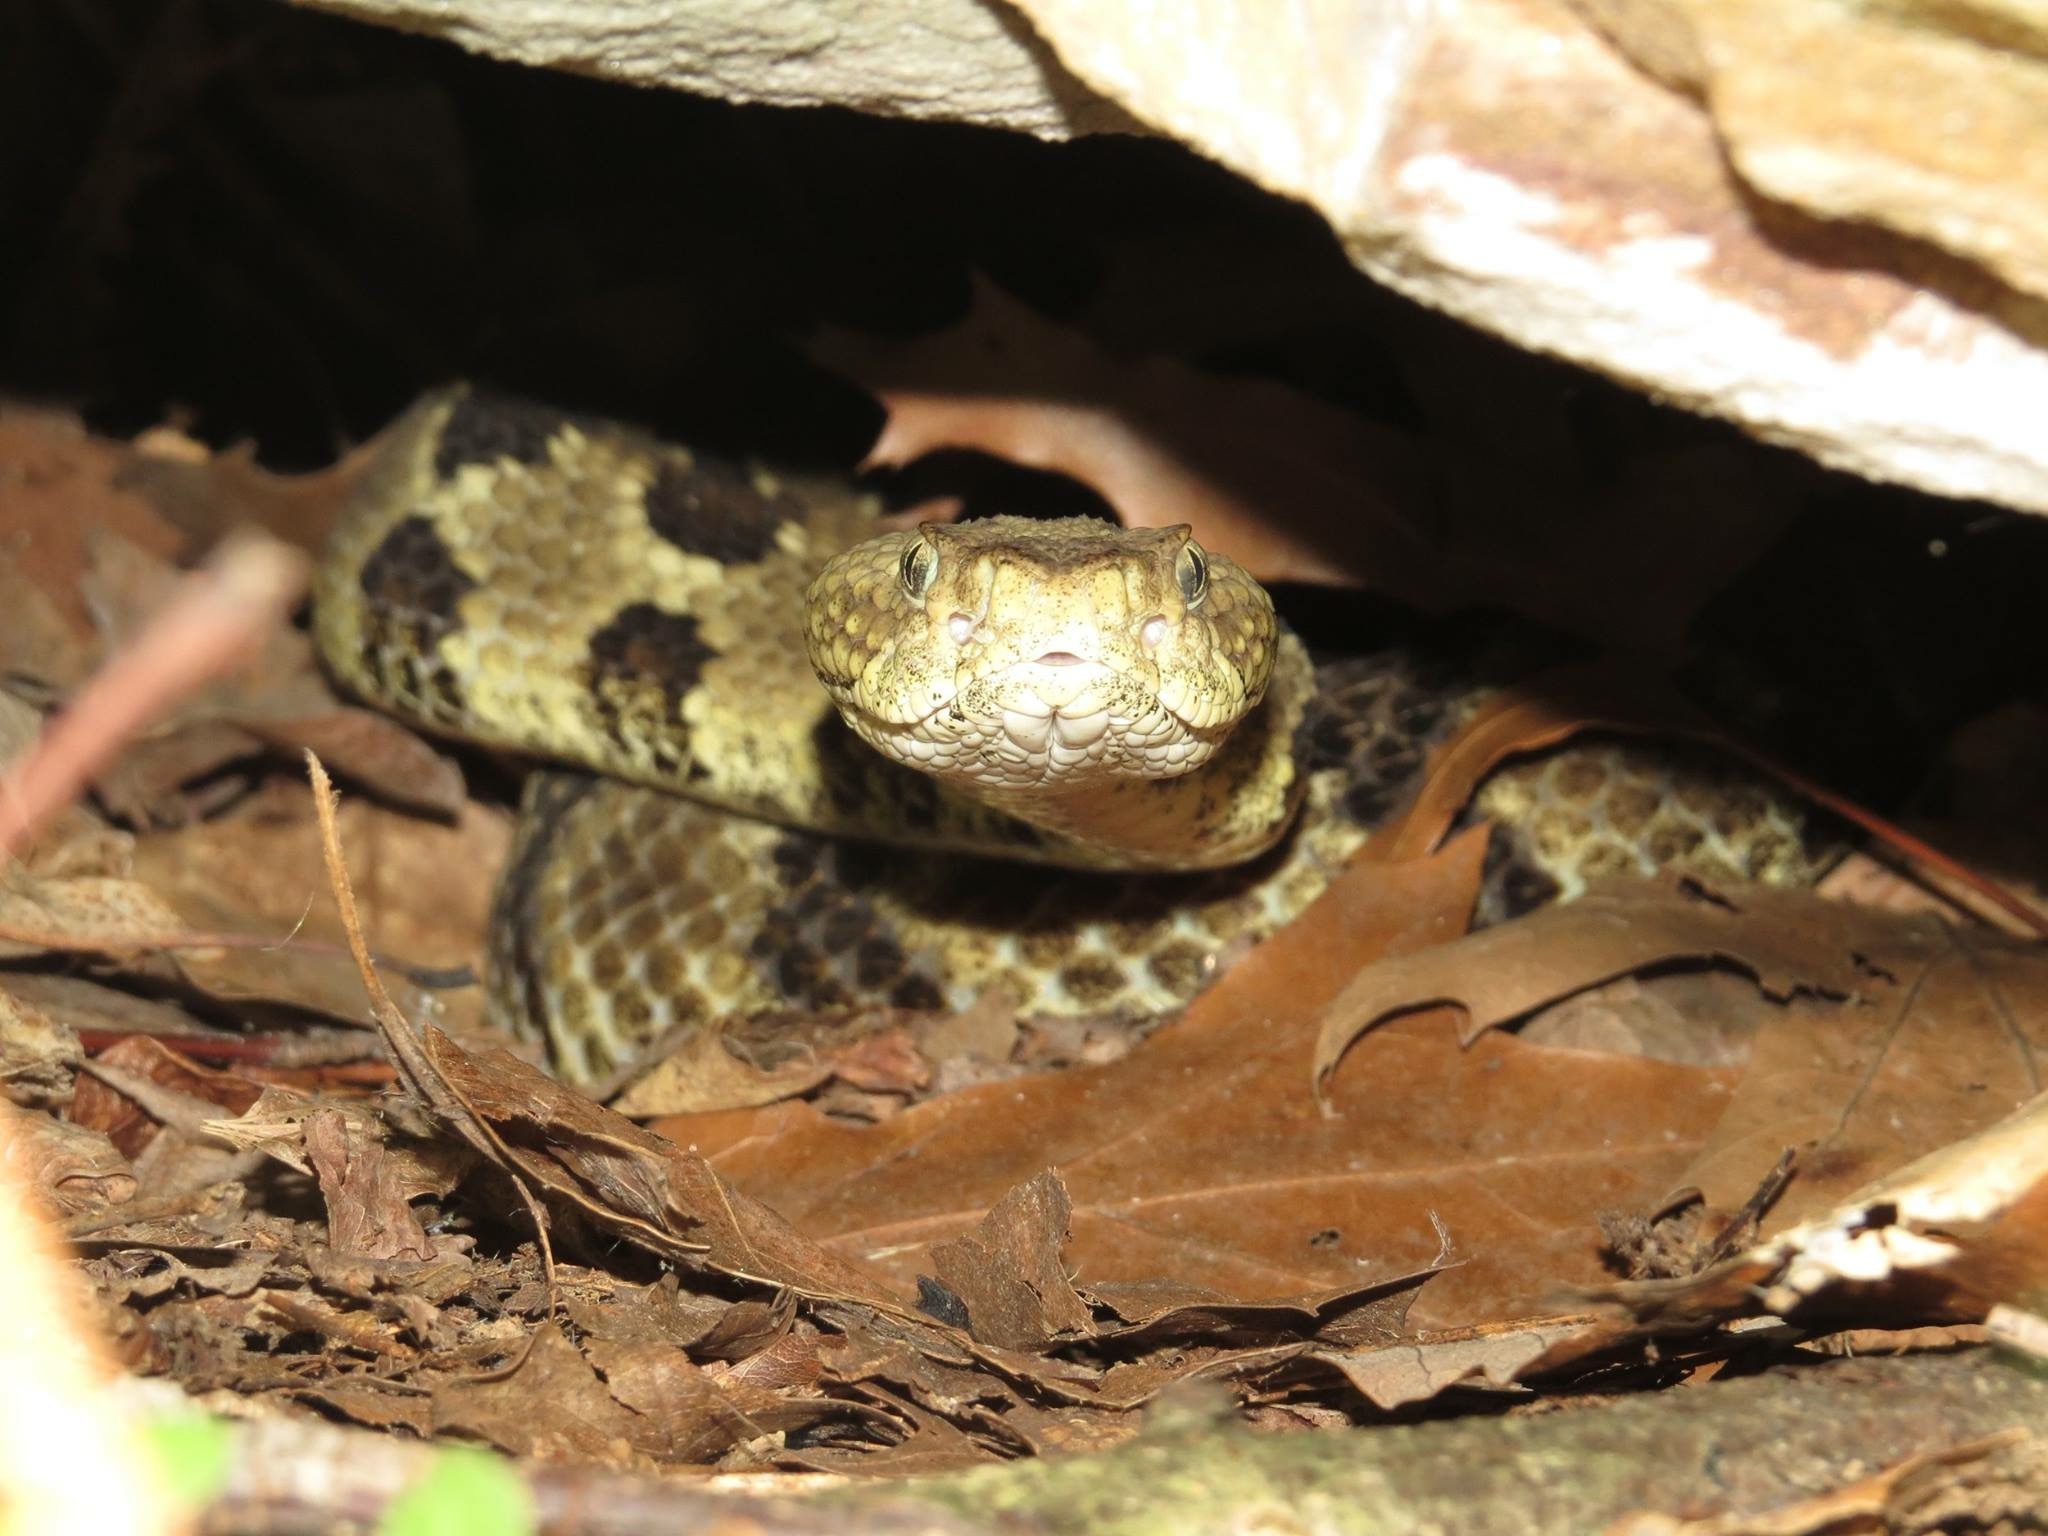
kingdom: Animalia
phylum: Chordata
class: Squamata
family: Viperidae
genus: Crotalus
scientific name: Crotalus horridus
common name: Timber rattlesnake
